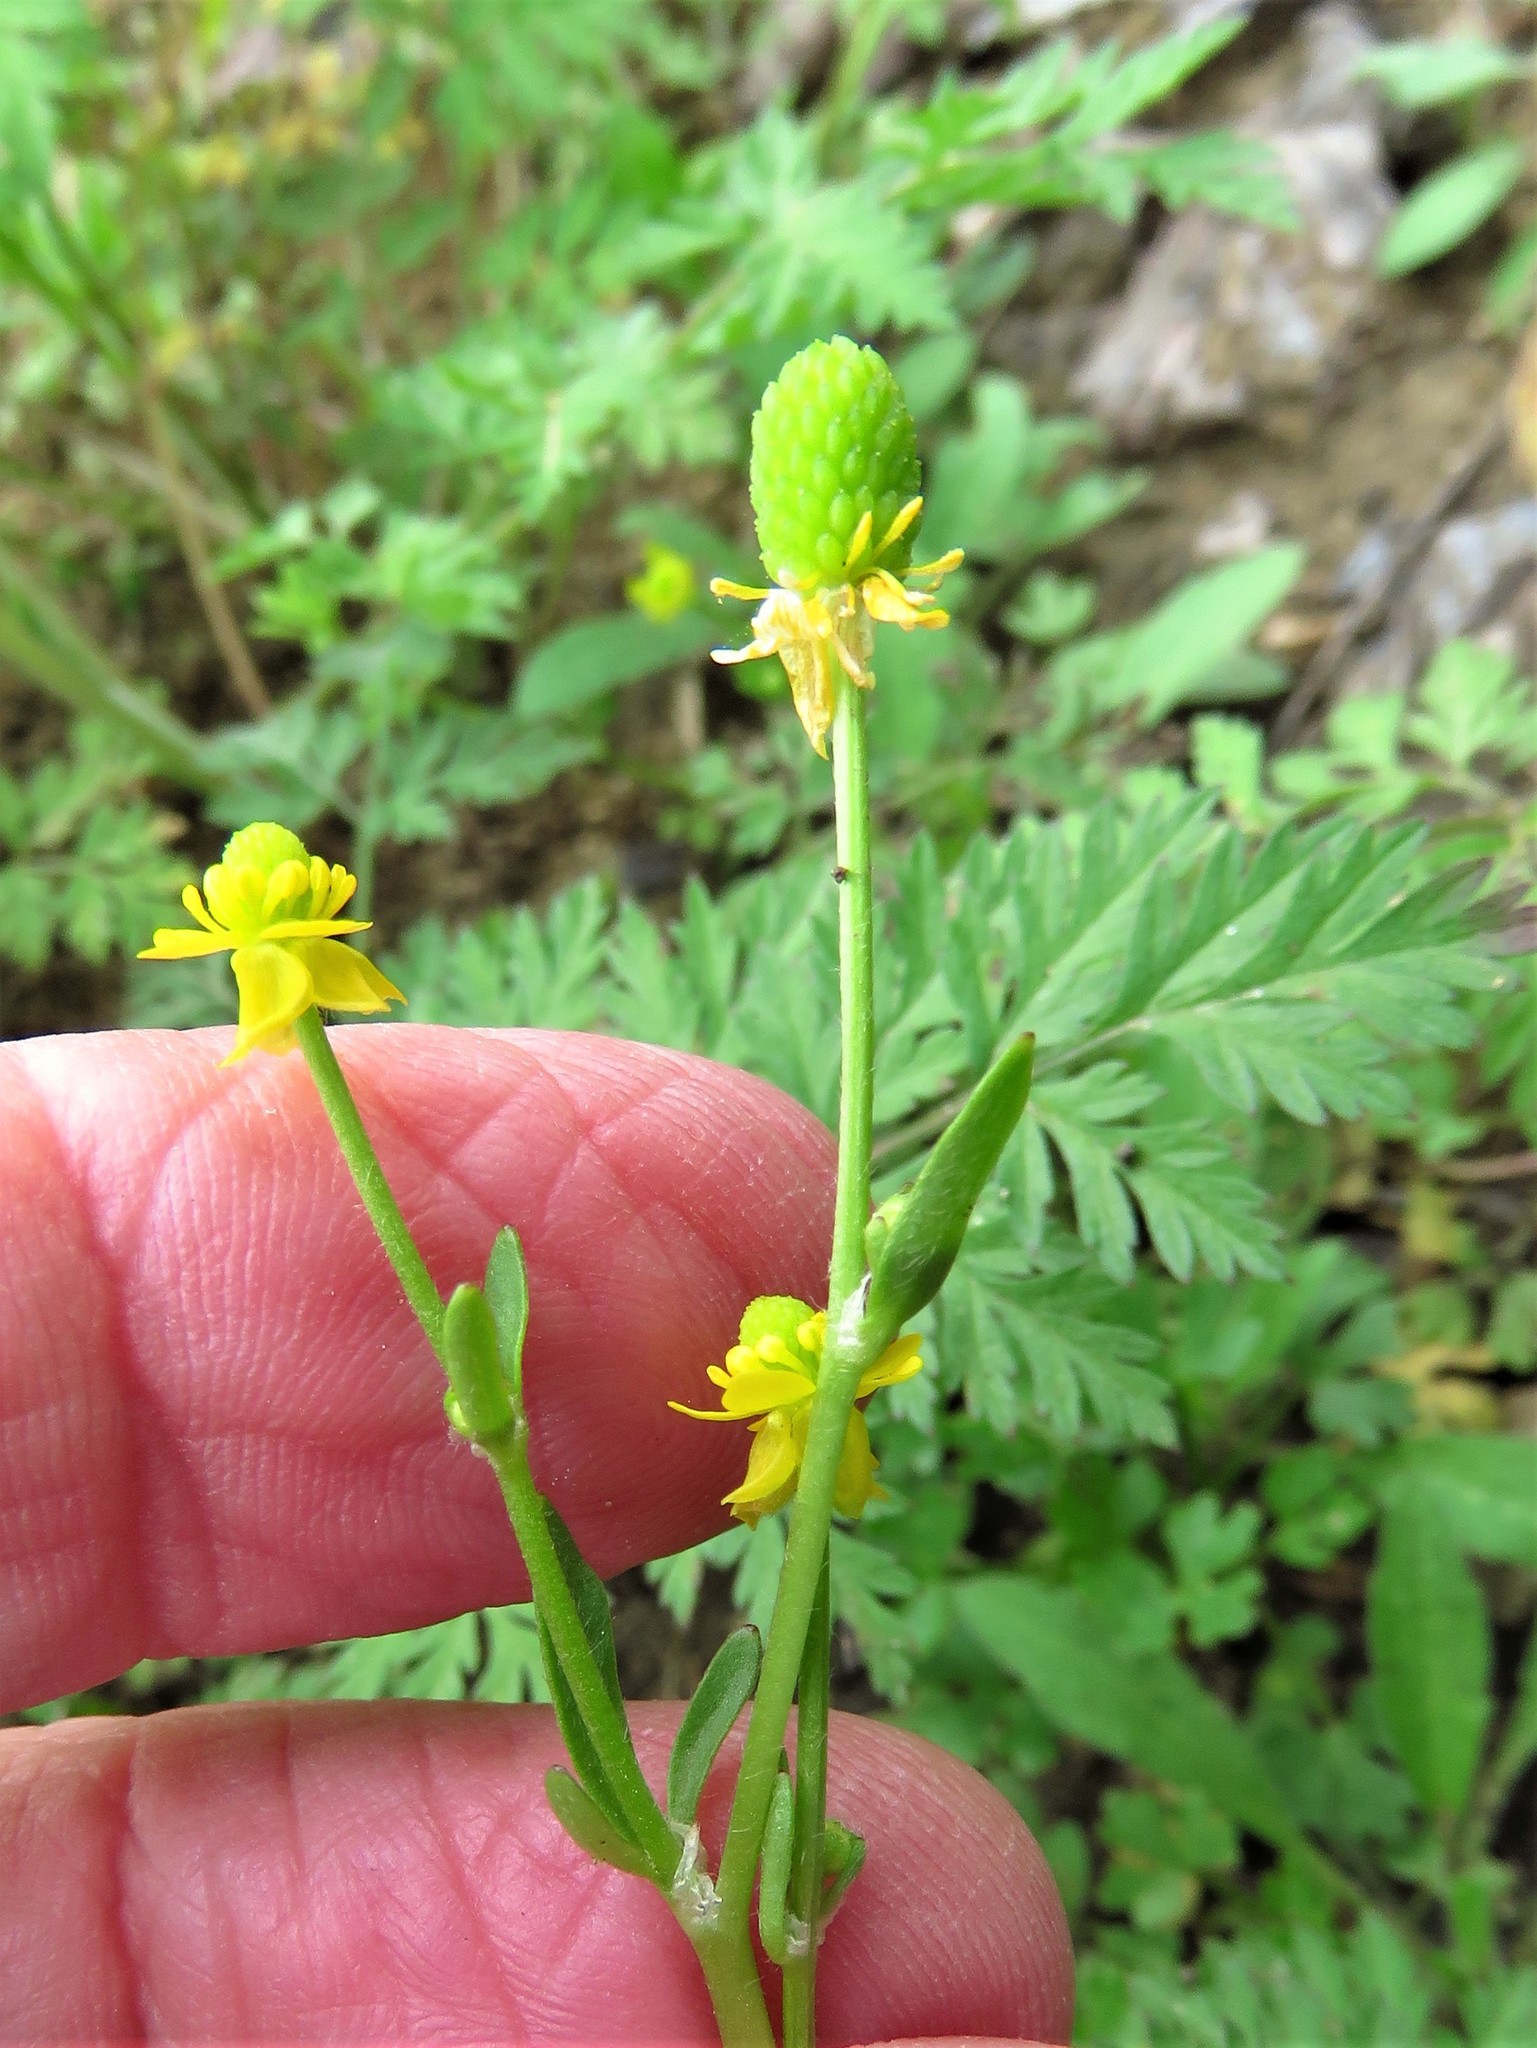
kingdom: Plantae
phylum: Tracheophyta
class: Magnoliopsida
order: Ranunculales
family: Ranunculaceae
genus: Ranunculus
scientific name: Ranunculus sceleratus
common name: Celery-leaved buttercup
